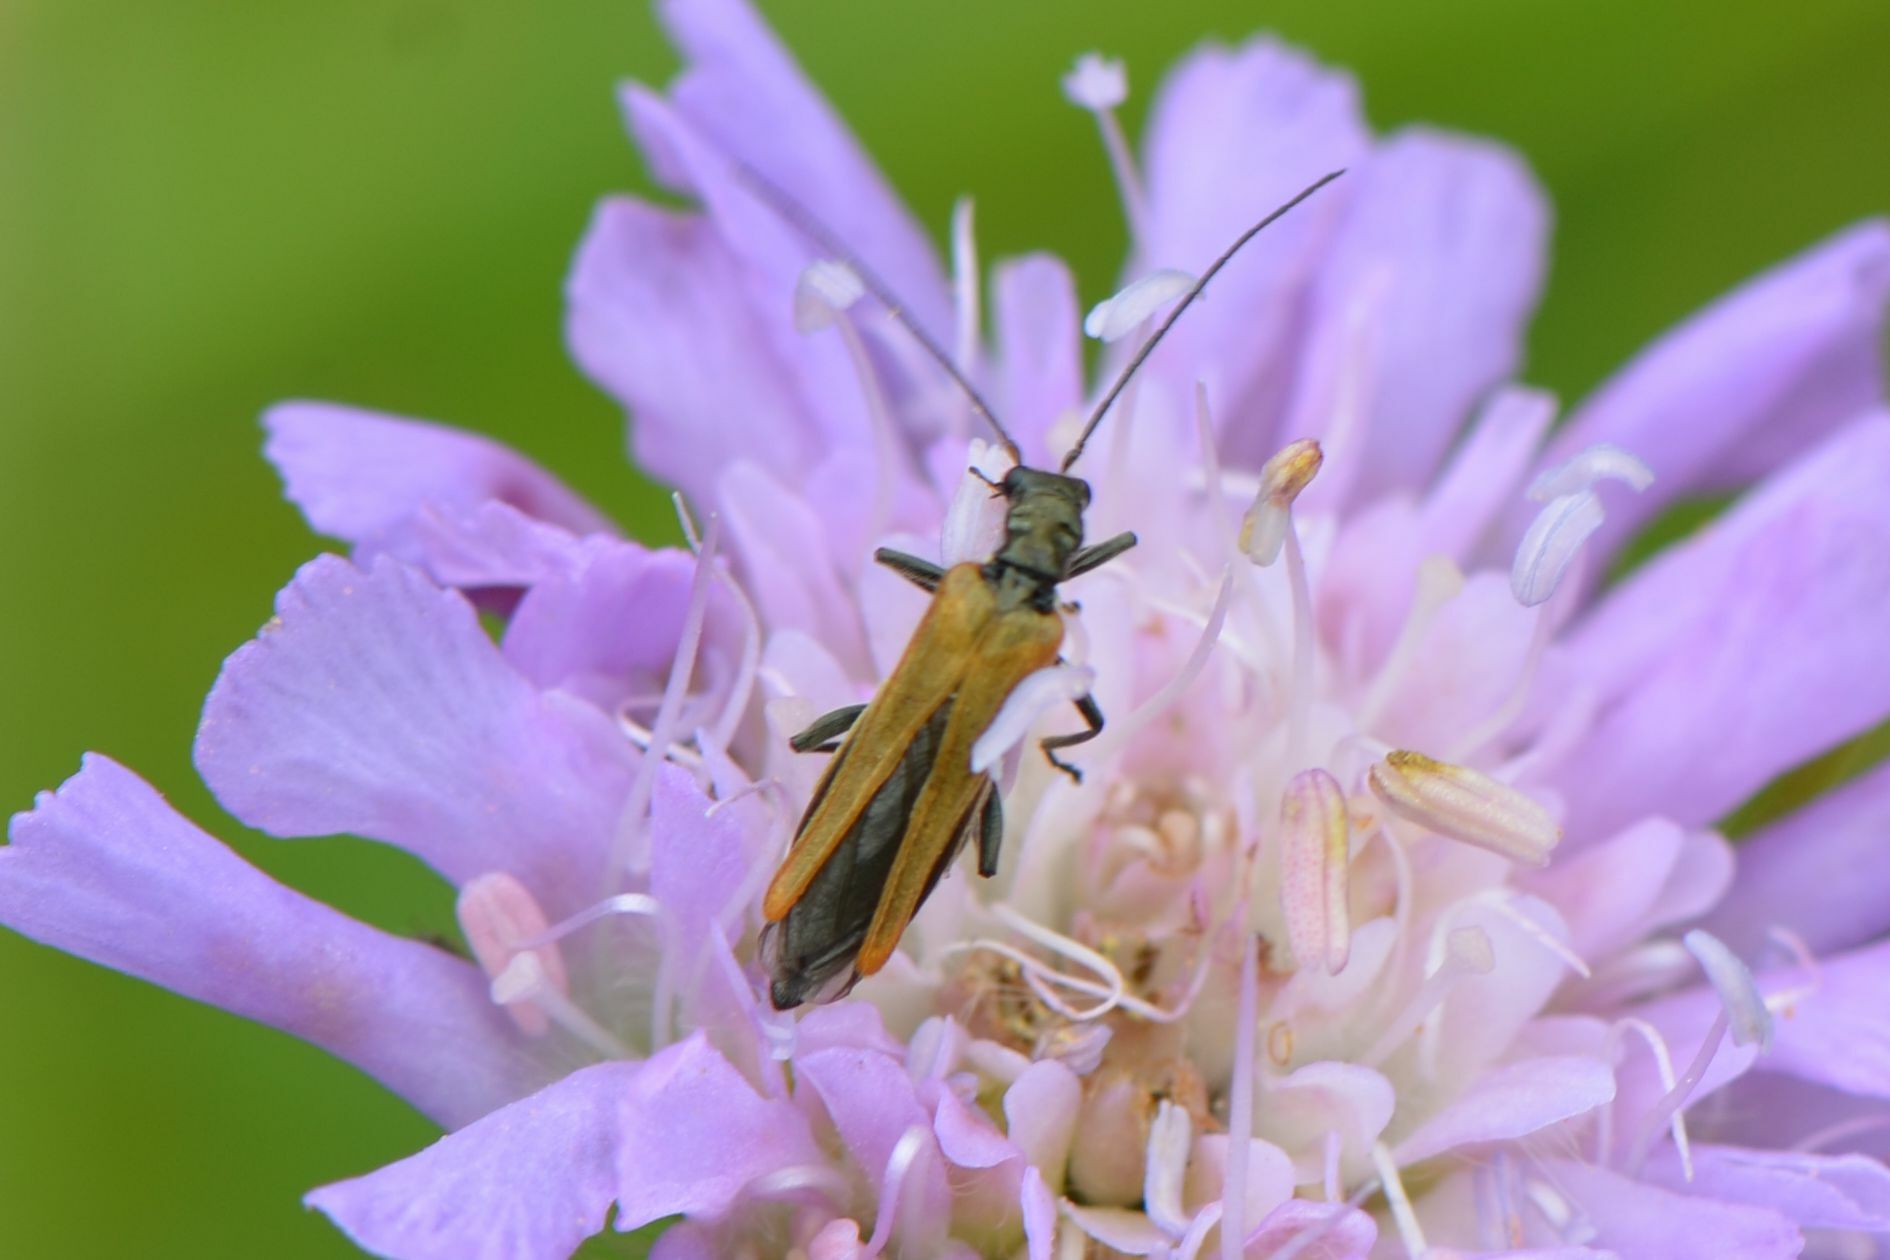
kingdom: Animalia
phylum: Arthropoda
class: Insecta
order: Coleoptera
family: Oedemeridae
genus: Oedemera
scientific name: Oedemera femorata
